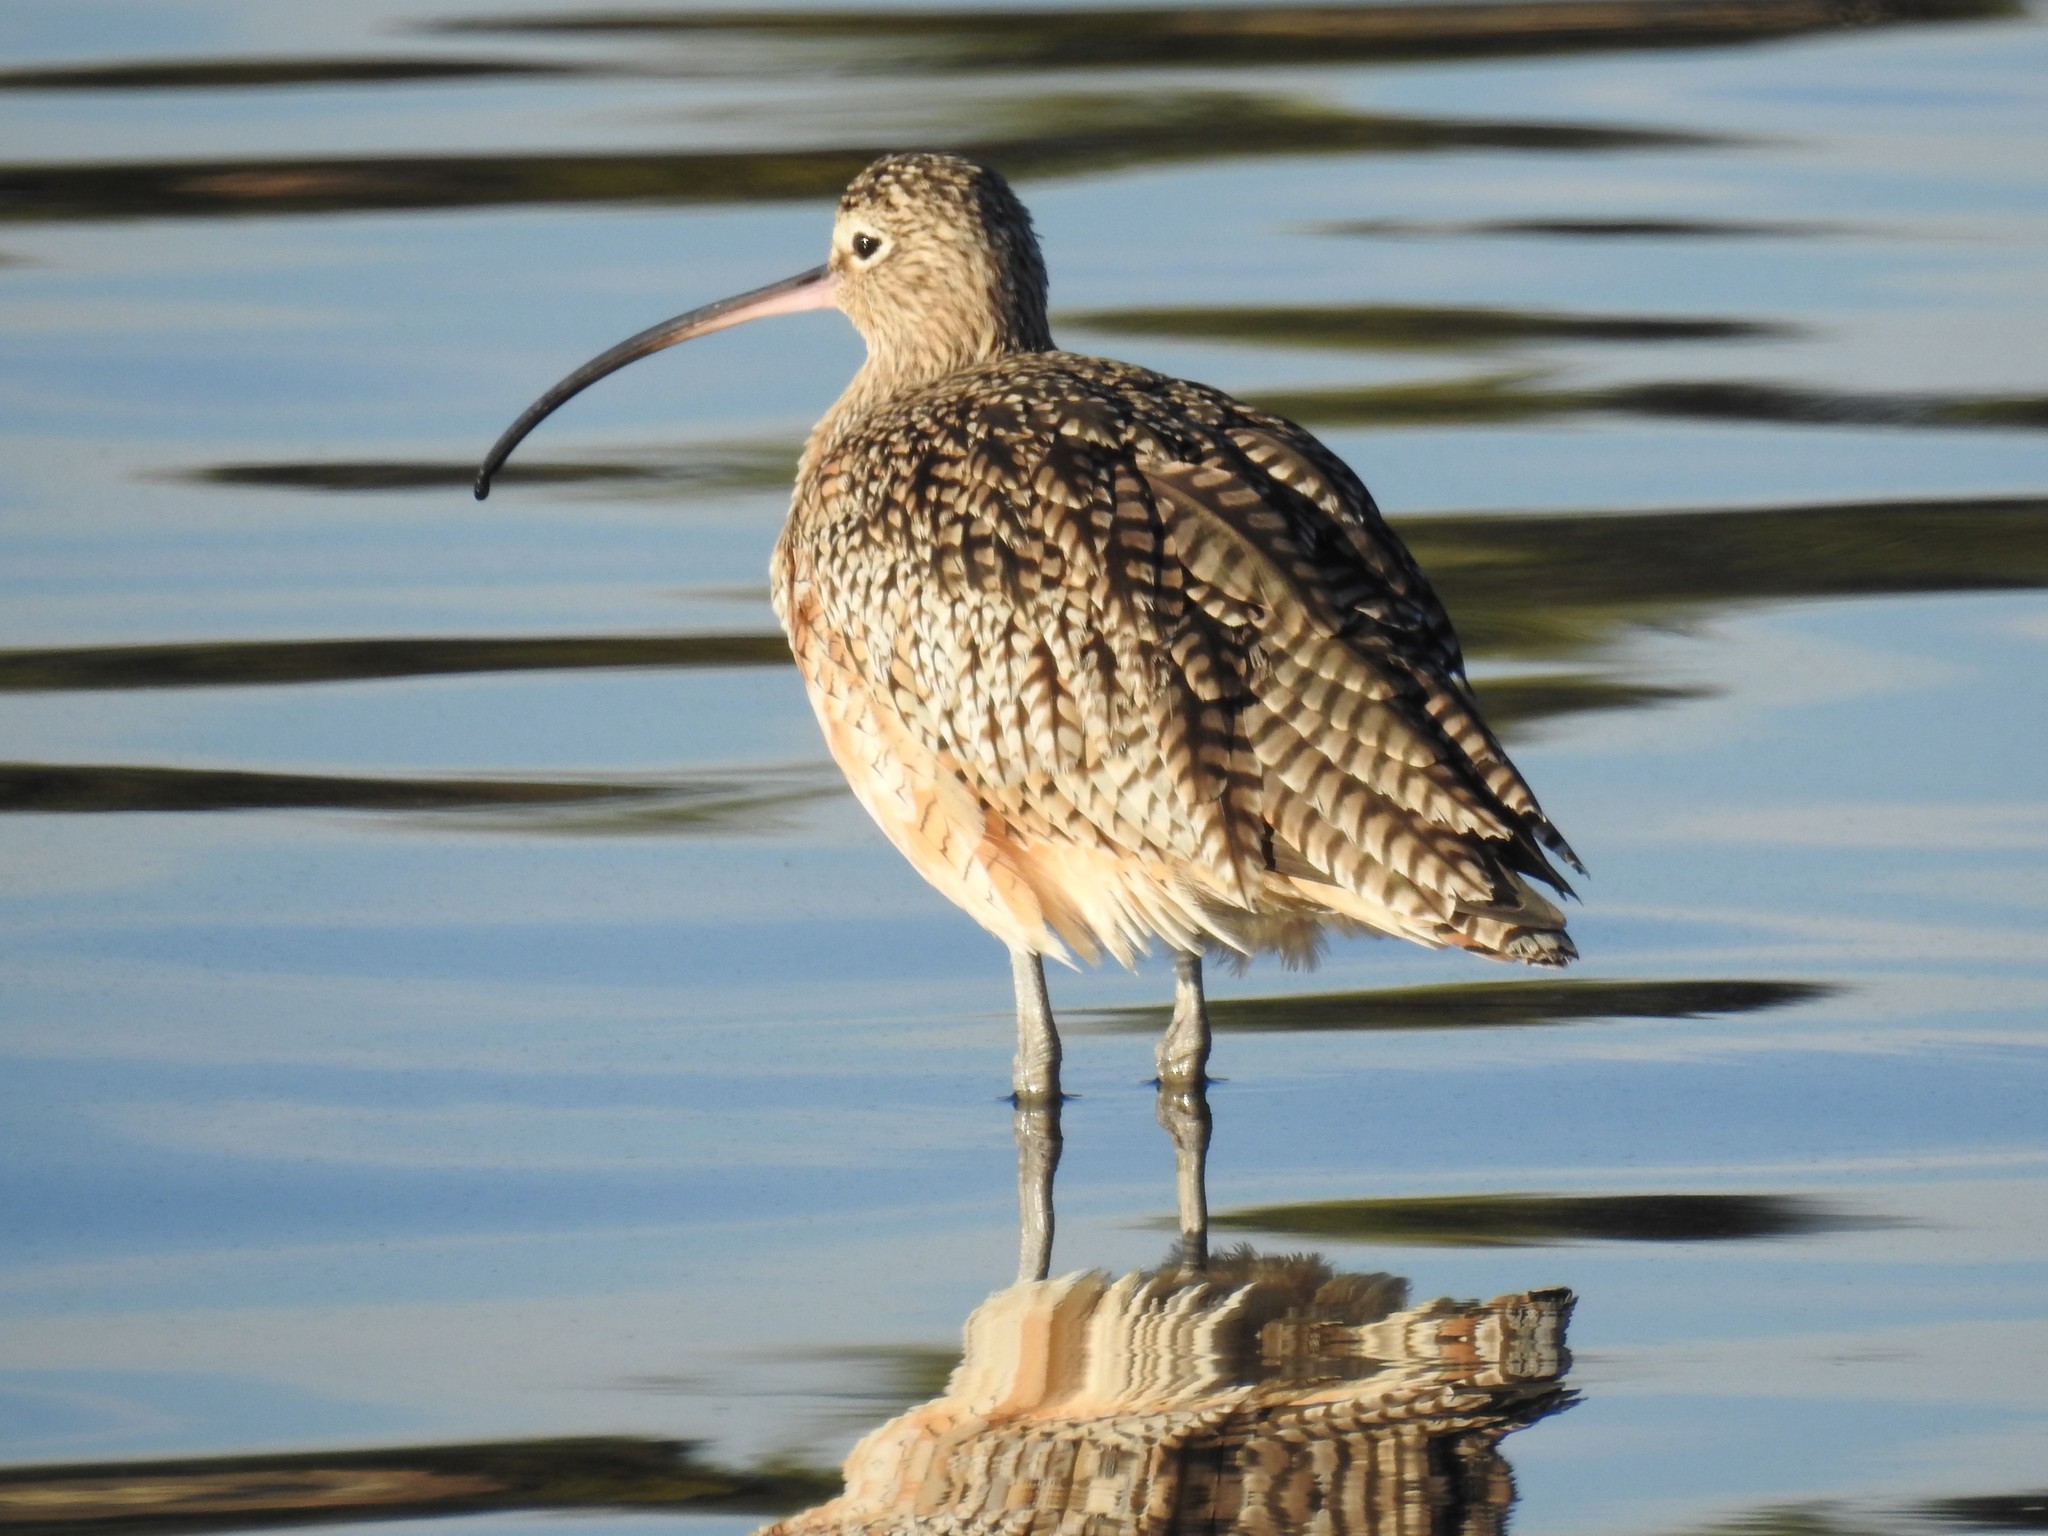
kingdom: Animalia
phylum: Chordata
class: Aves
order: Charadriiformes
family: Scolopacidae
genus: Numenius
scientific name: Numenius americanus
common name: Long-billed curlew
